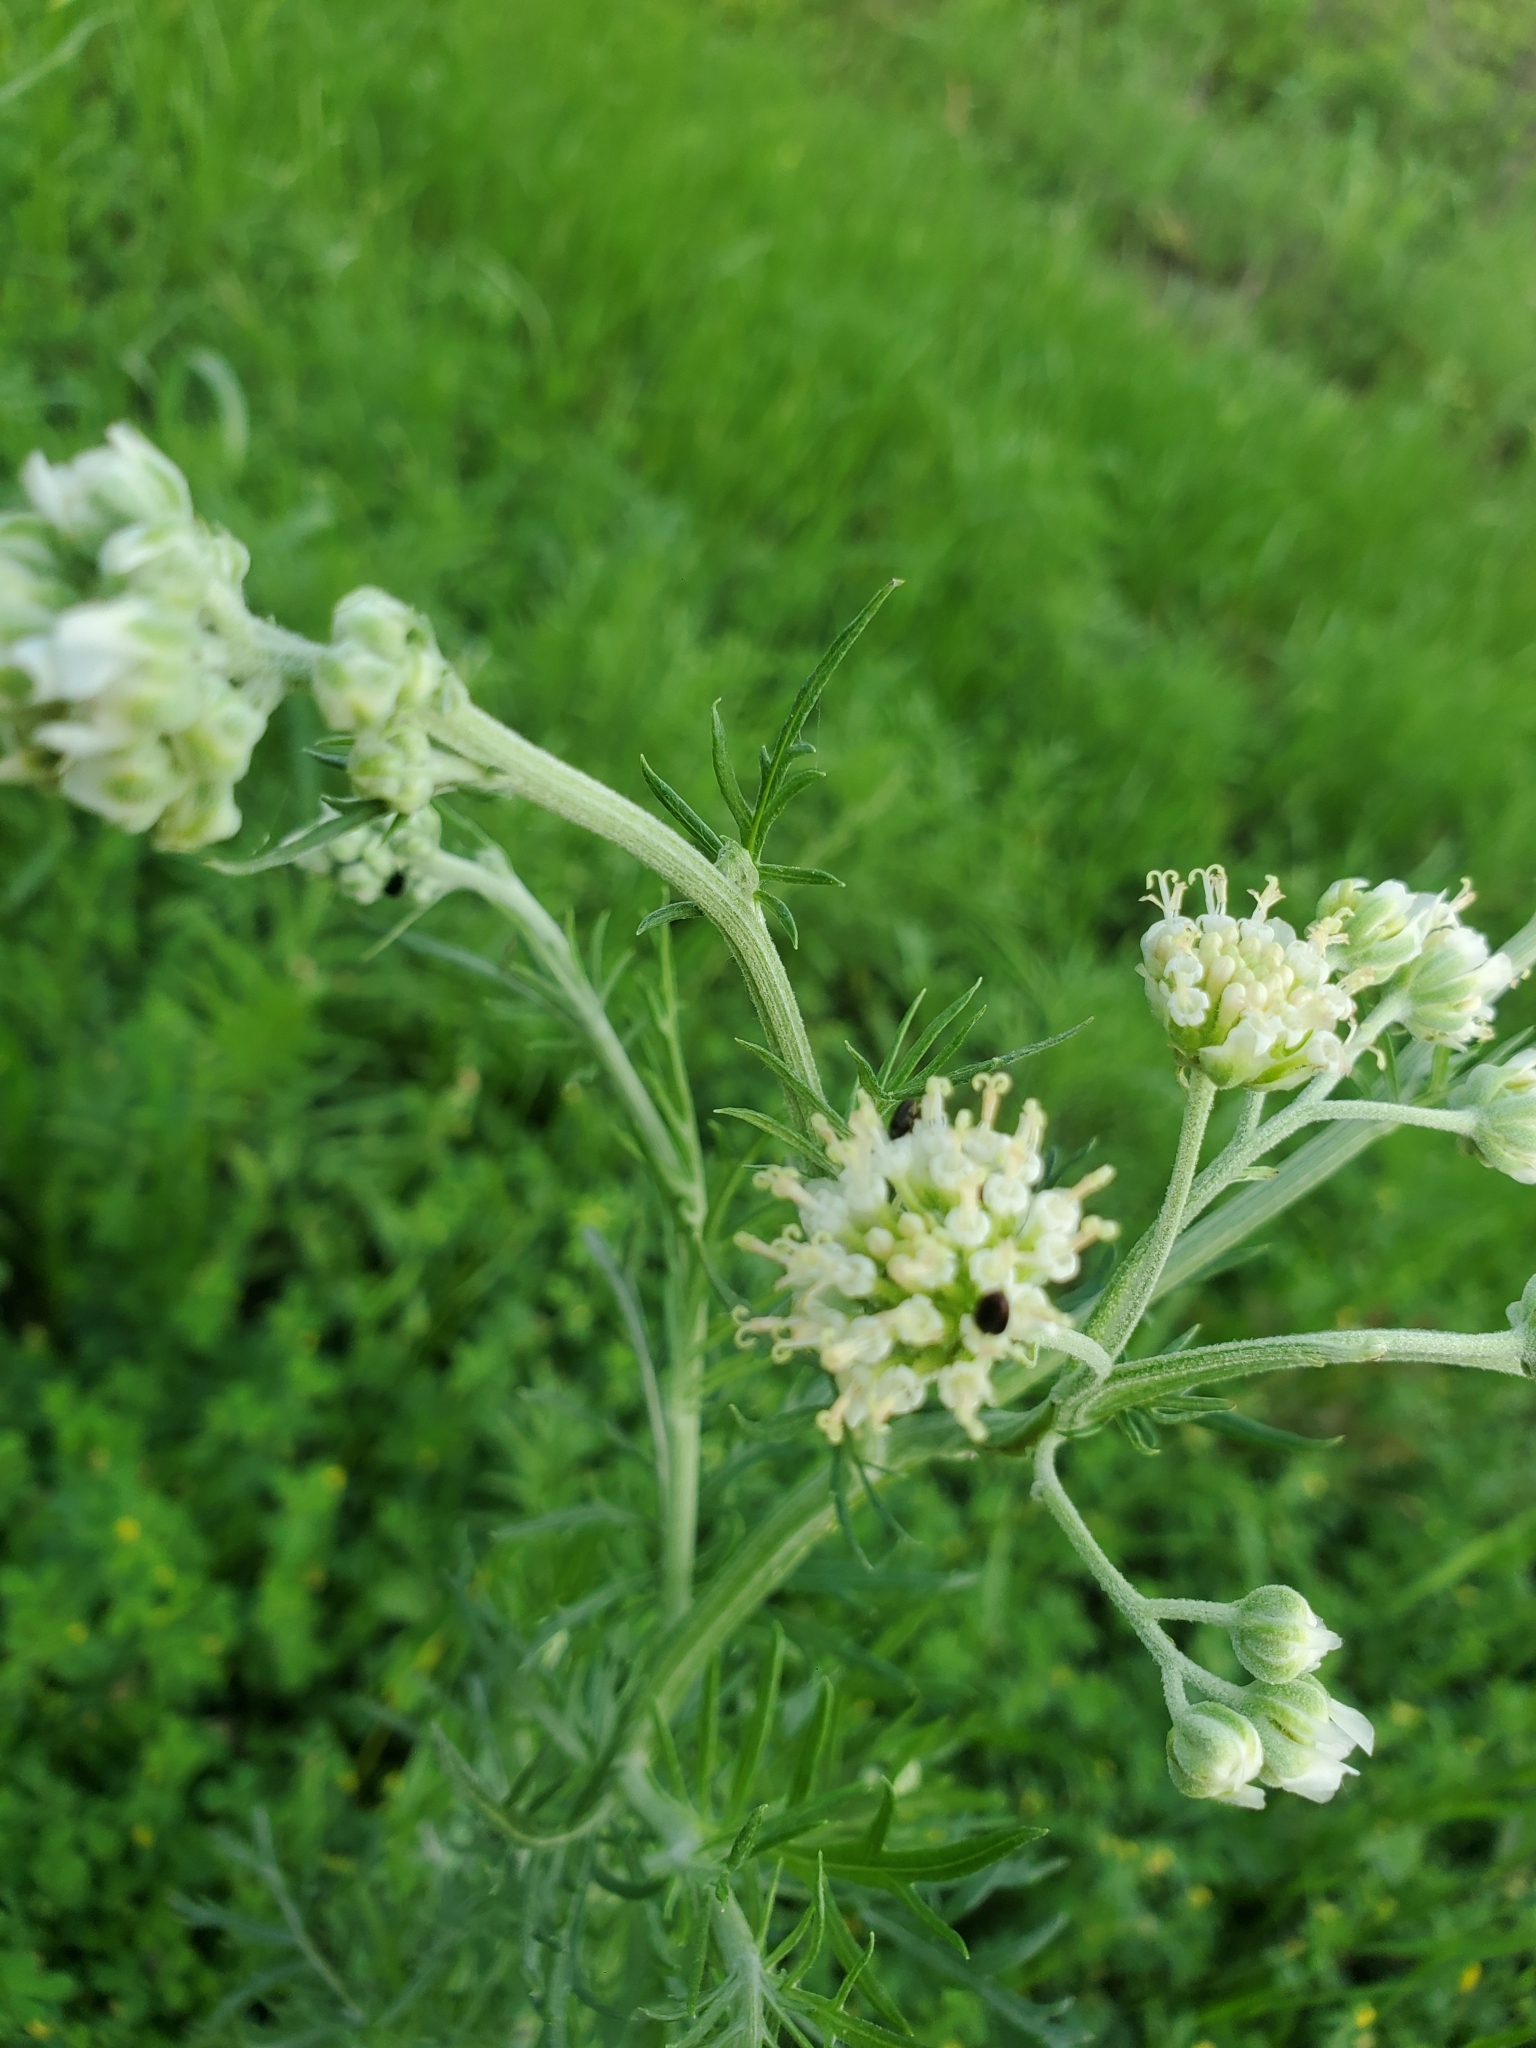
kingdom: Plantae
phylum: Tracheophyta
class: Magnoliopsida
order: Asterales
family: Asteraceae
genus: Hymenopappus
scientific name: Hymenopappus scabiosaeus
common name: Carolina woollywhite
